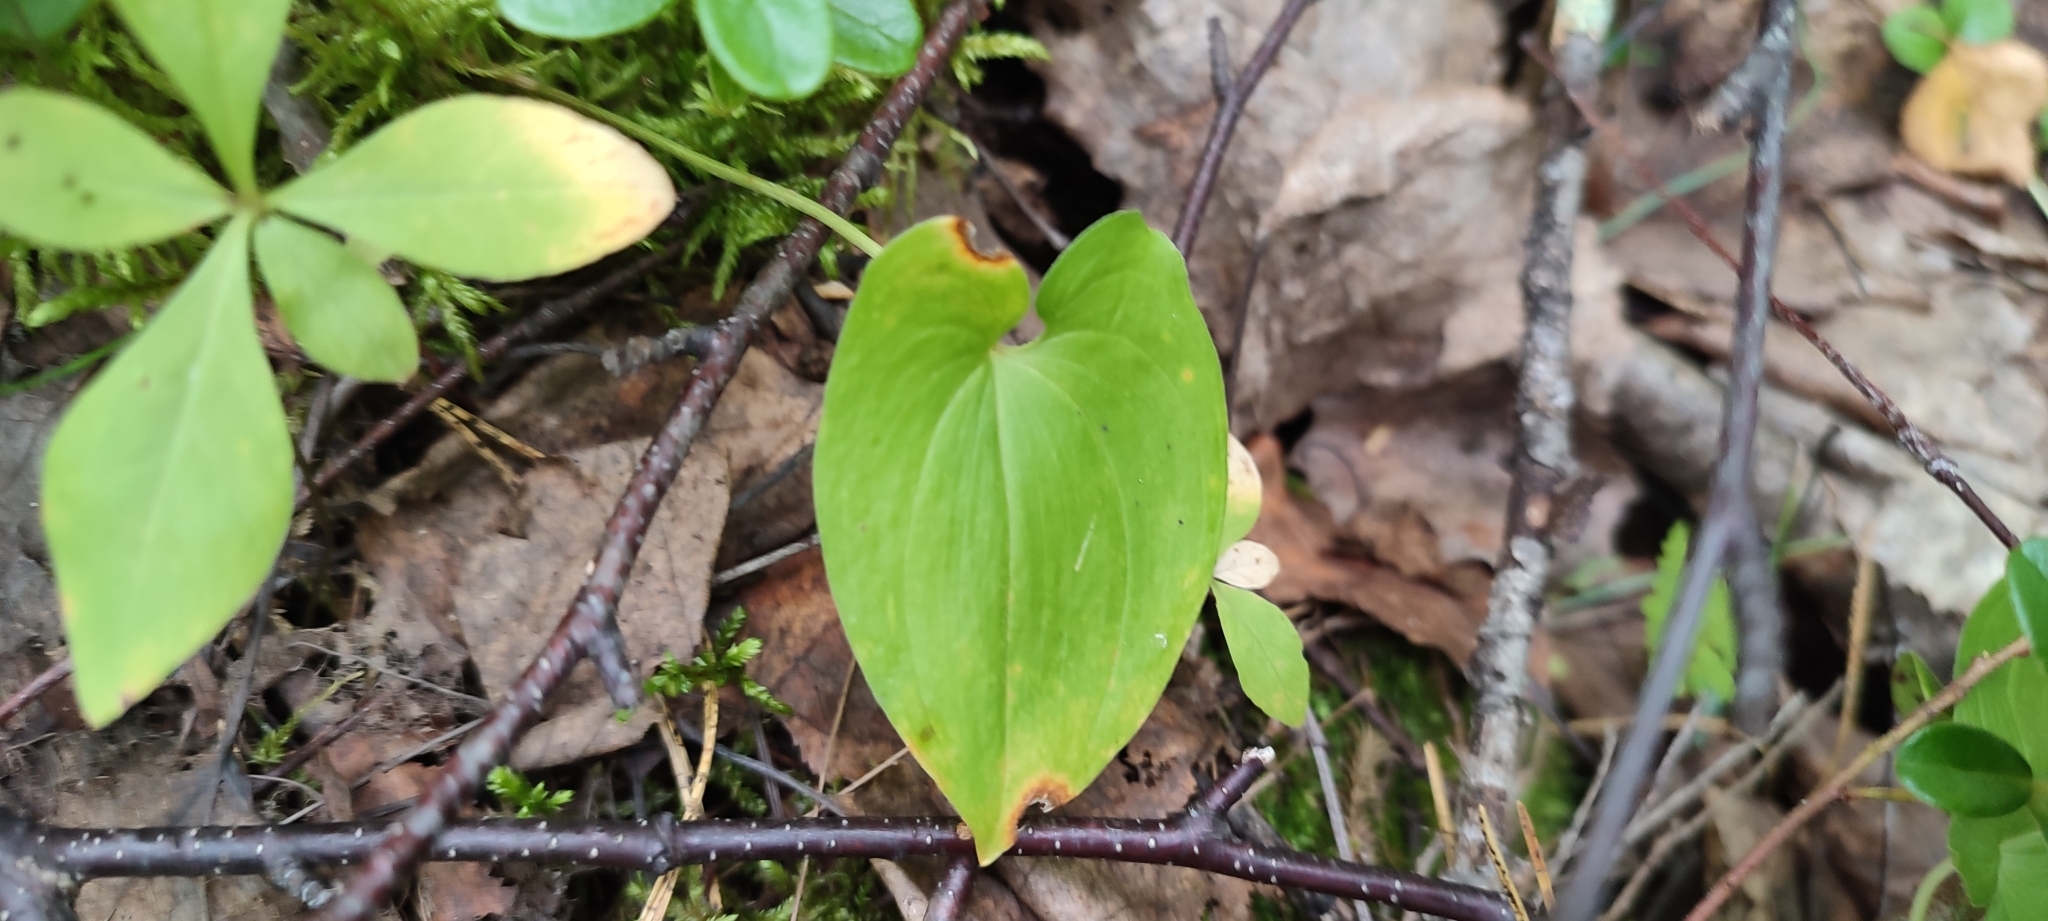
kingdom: Plantae
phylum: Tracheophyta
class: Liliopsida
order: Asparagales
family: Asparagaceae
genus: Maianthemum
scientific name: Maianthemum bifolium
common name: May lily
